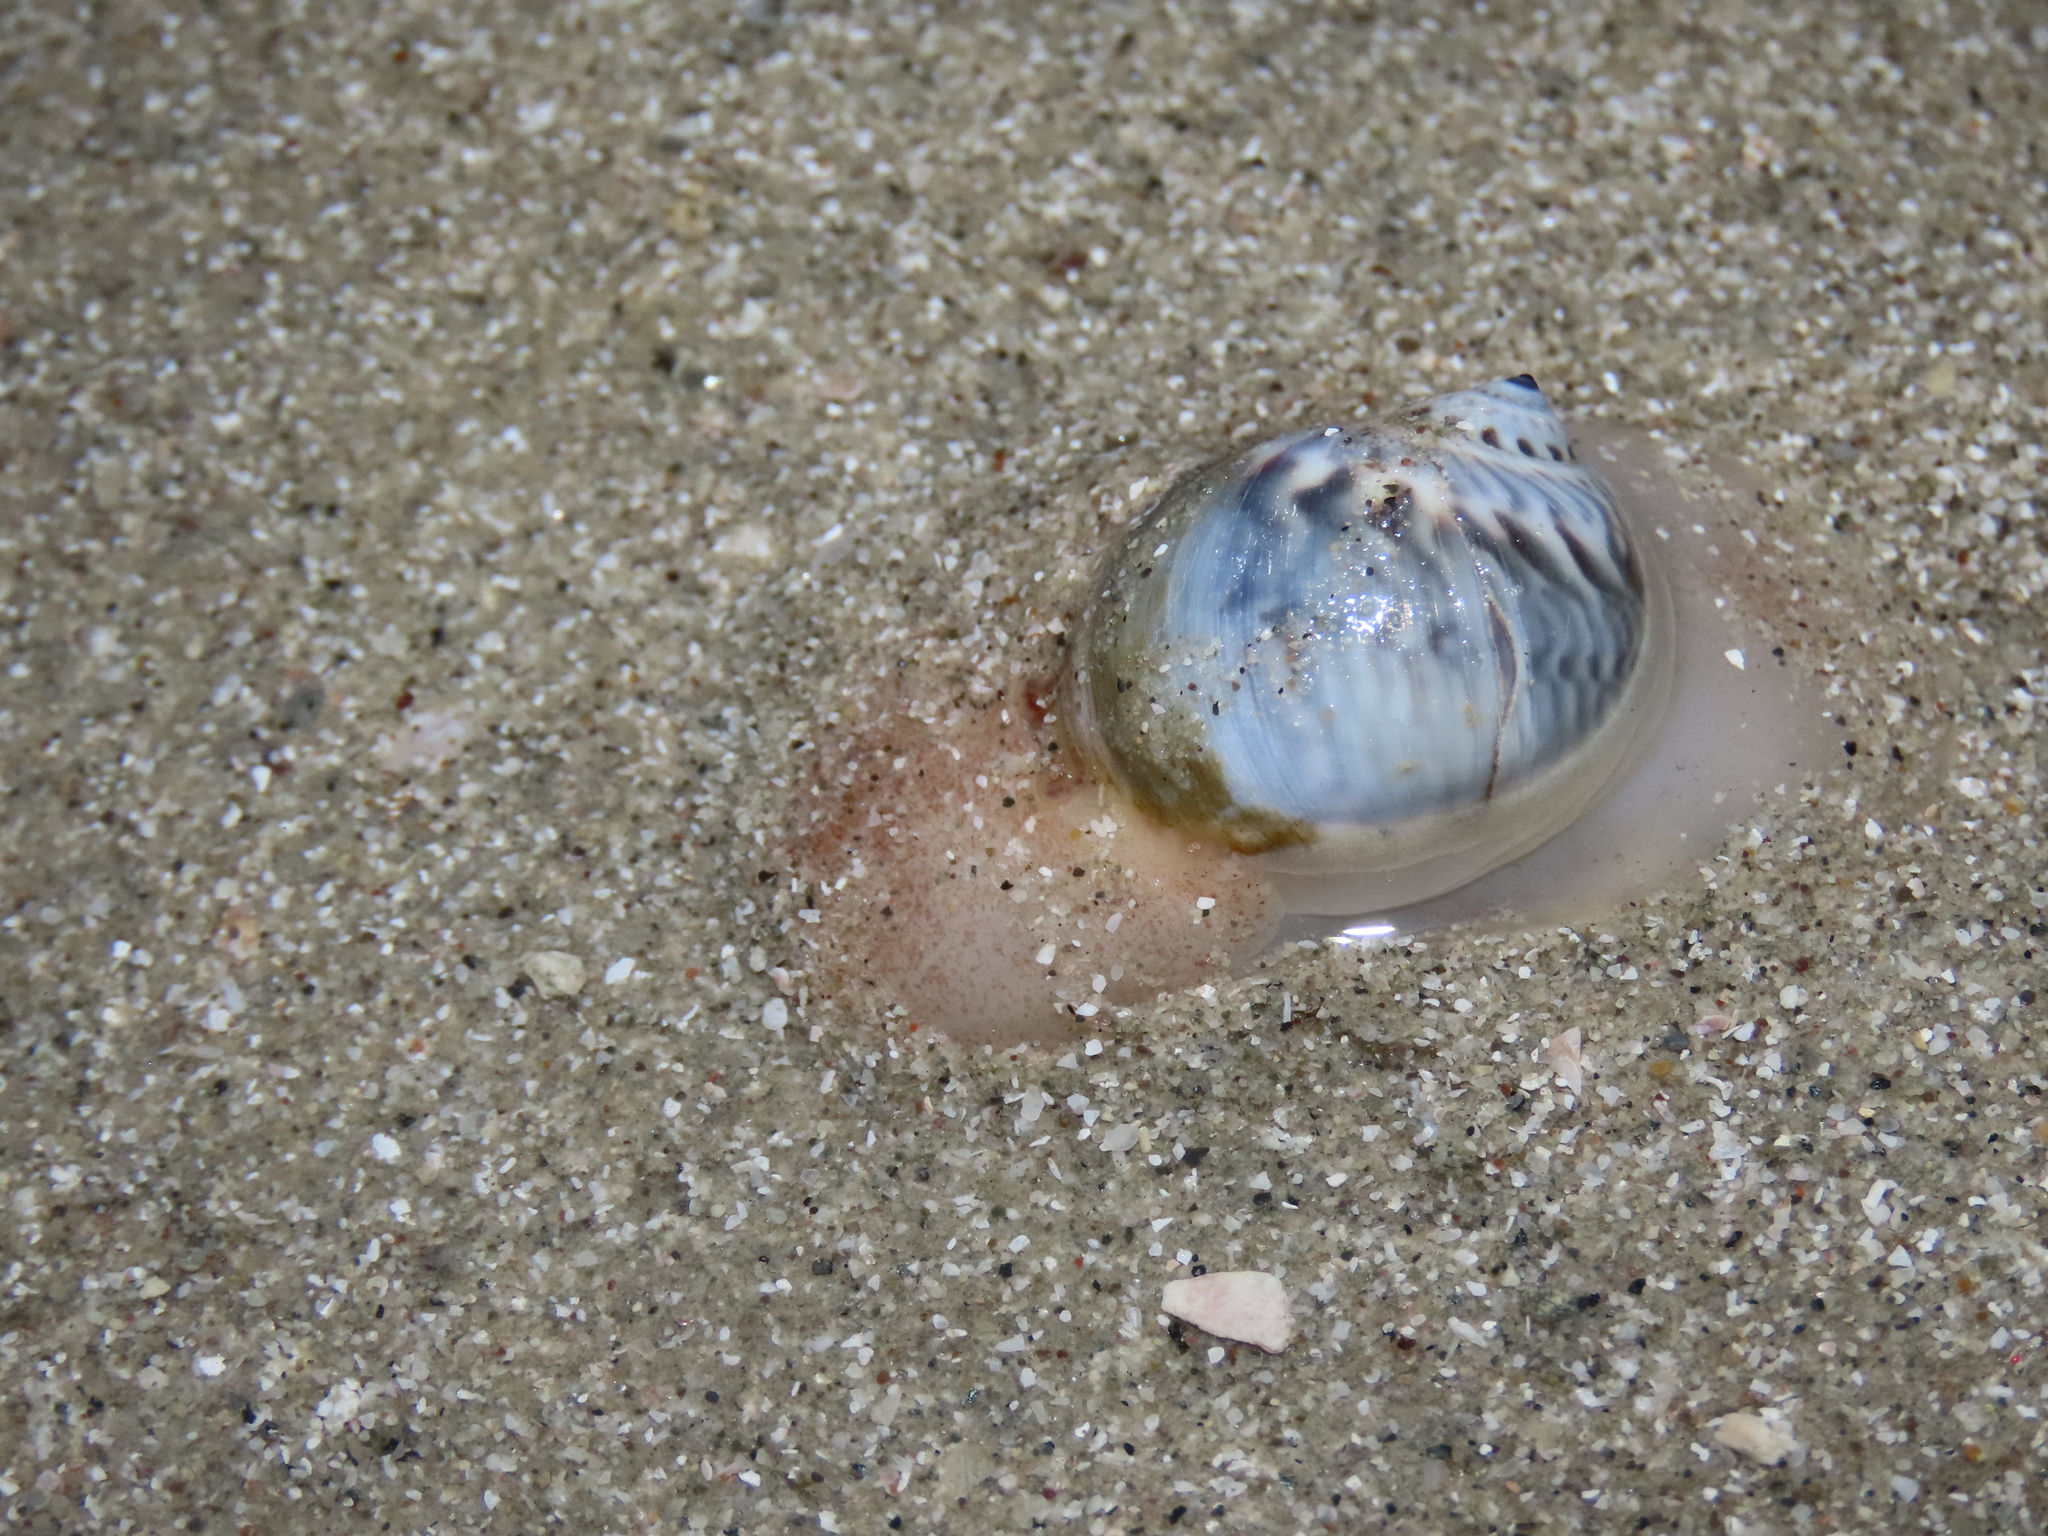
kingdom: Animalia
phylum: Mollusca
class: Gastropoda
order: Littorinimorpha
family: Naticidae
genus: Notocochlis
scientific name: Notocochlis chemnitzii
